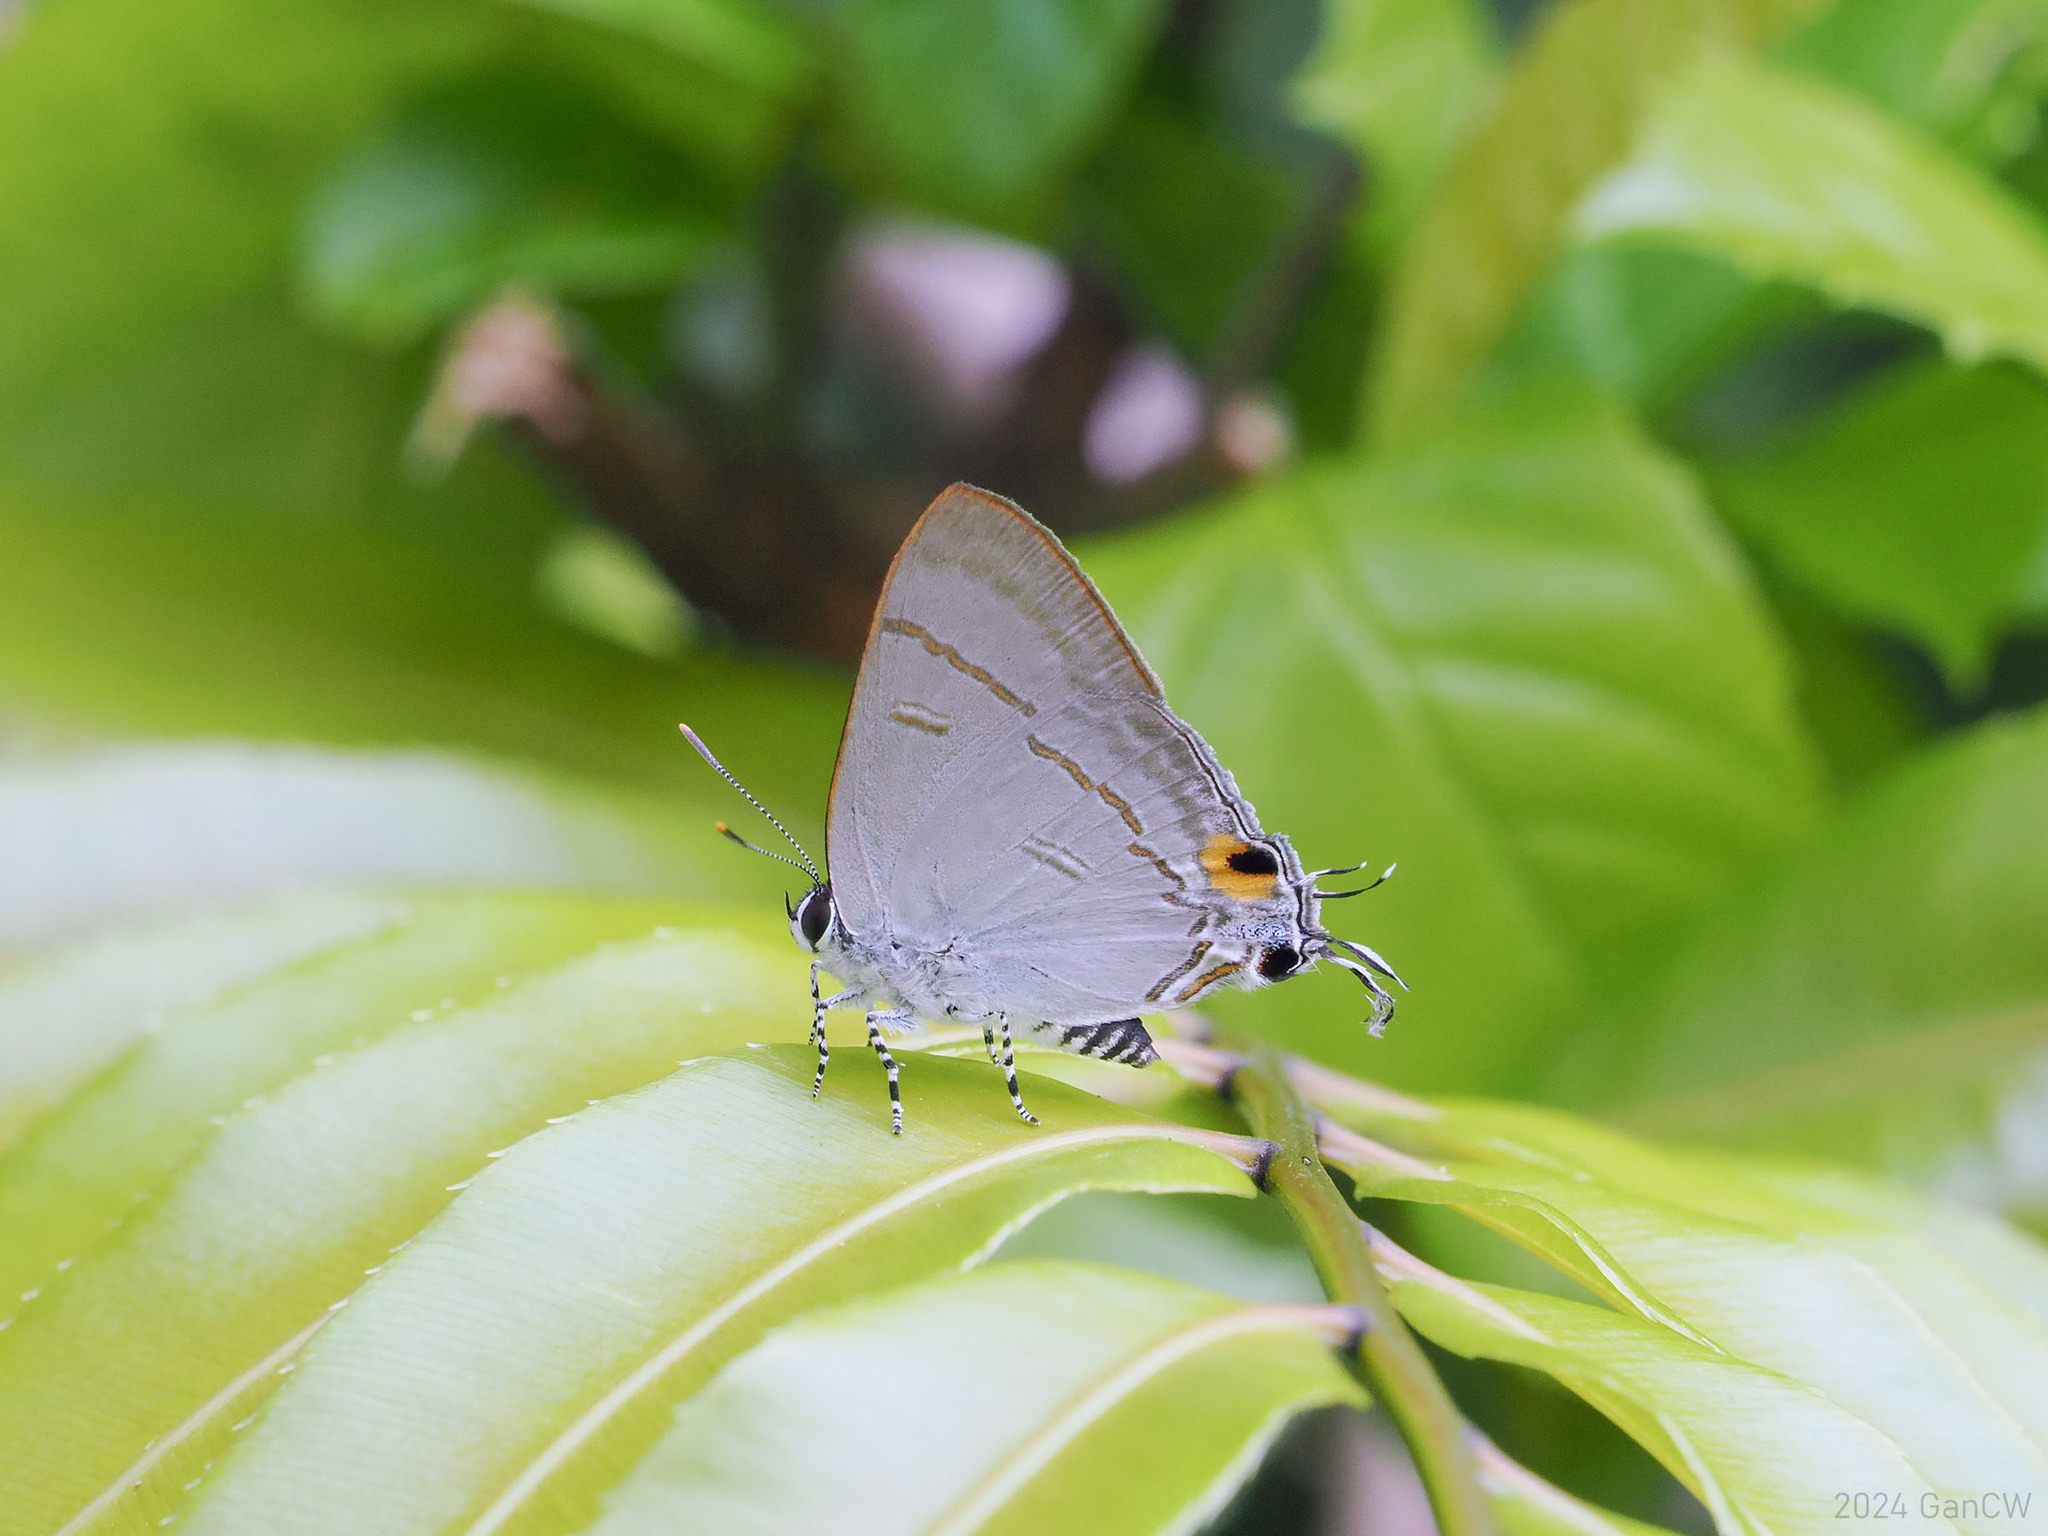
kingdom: Animalia
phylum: Arthropoda
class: Insecta
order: Lepidoptera
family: Lycaenidae
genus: Hypolycaena
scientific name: Hypolycaena erylus
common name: Common tit
